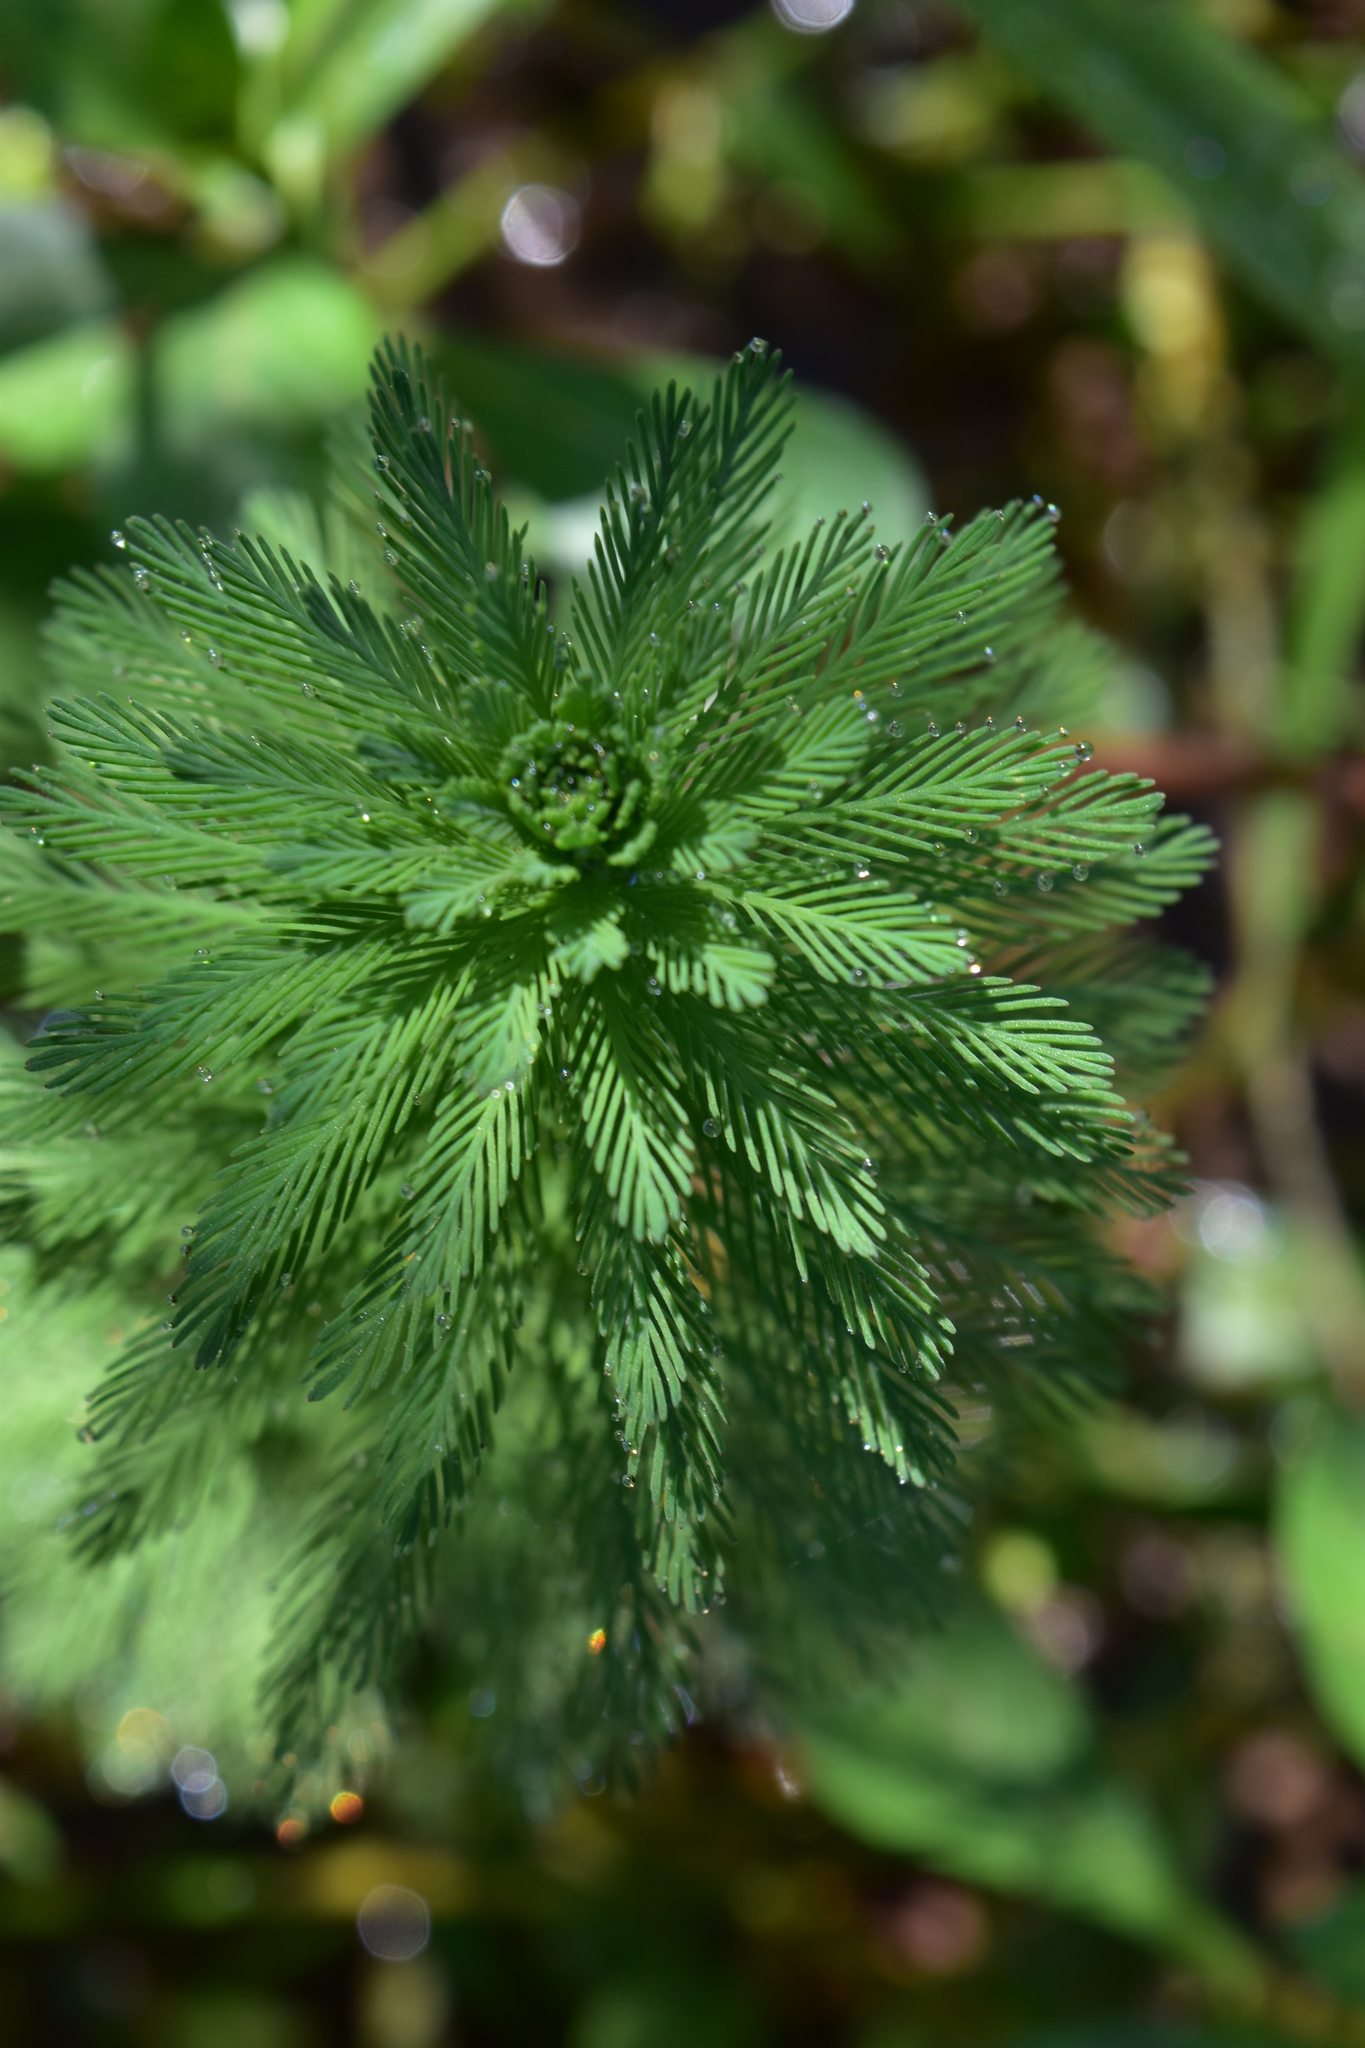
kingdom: Plantae
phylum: Tracheophyta
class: Magnoliopsida
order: Saxifragales
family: Haloragaceae
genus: Myriophyllum
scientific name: Myriophyllum aquaticum
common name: Parrot's feather
